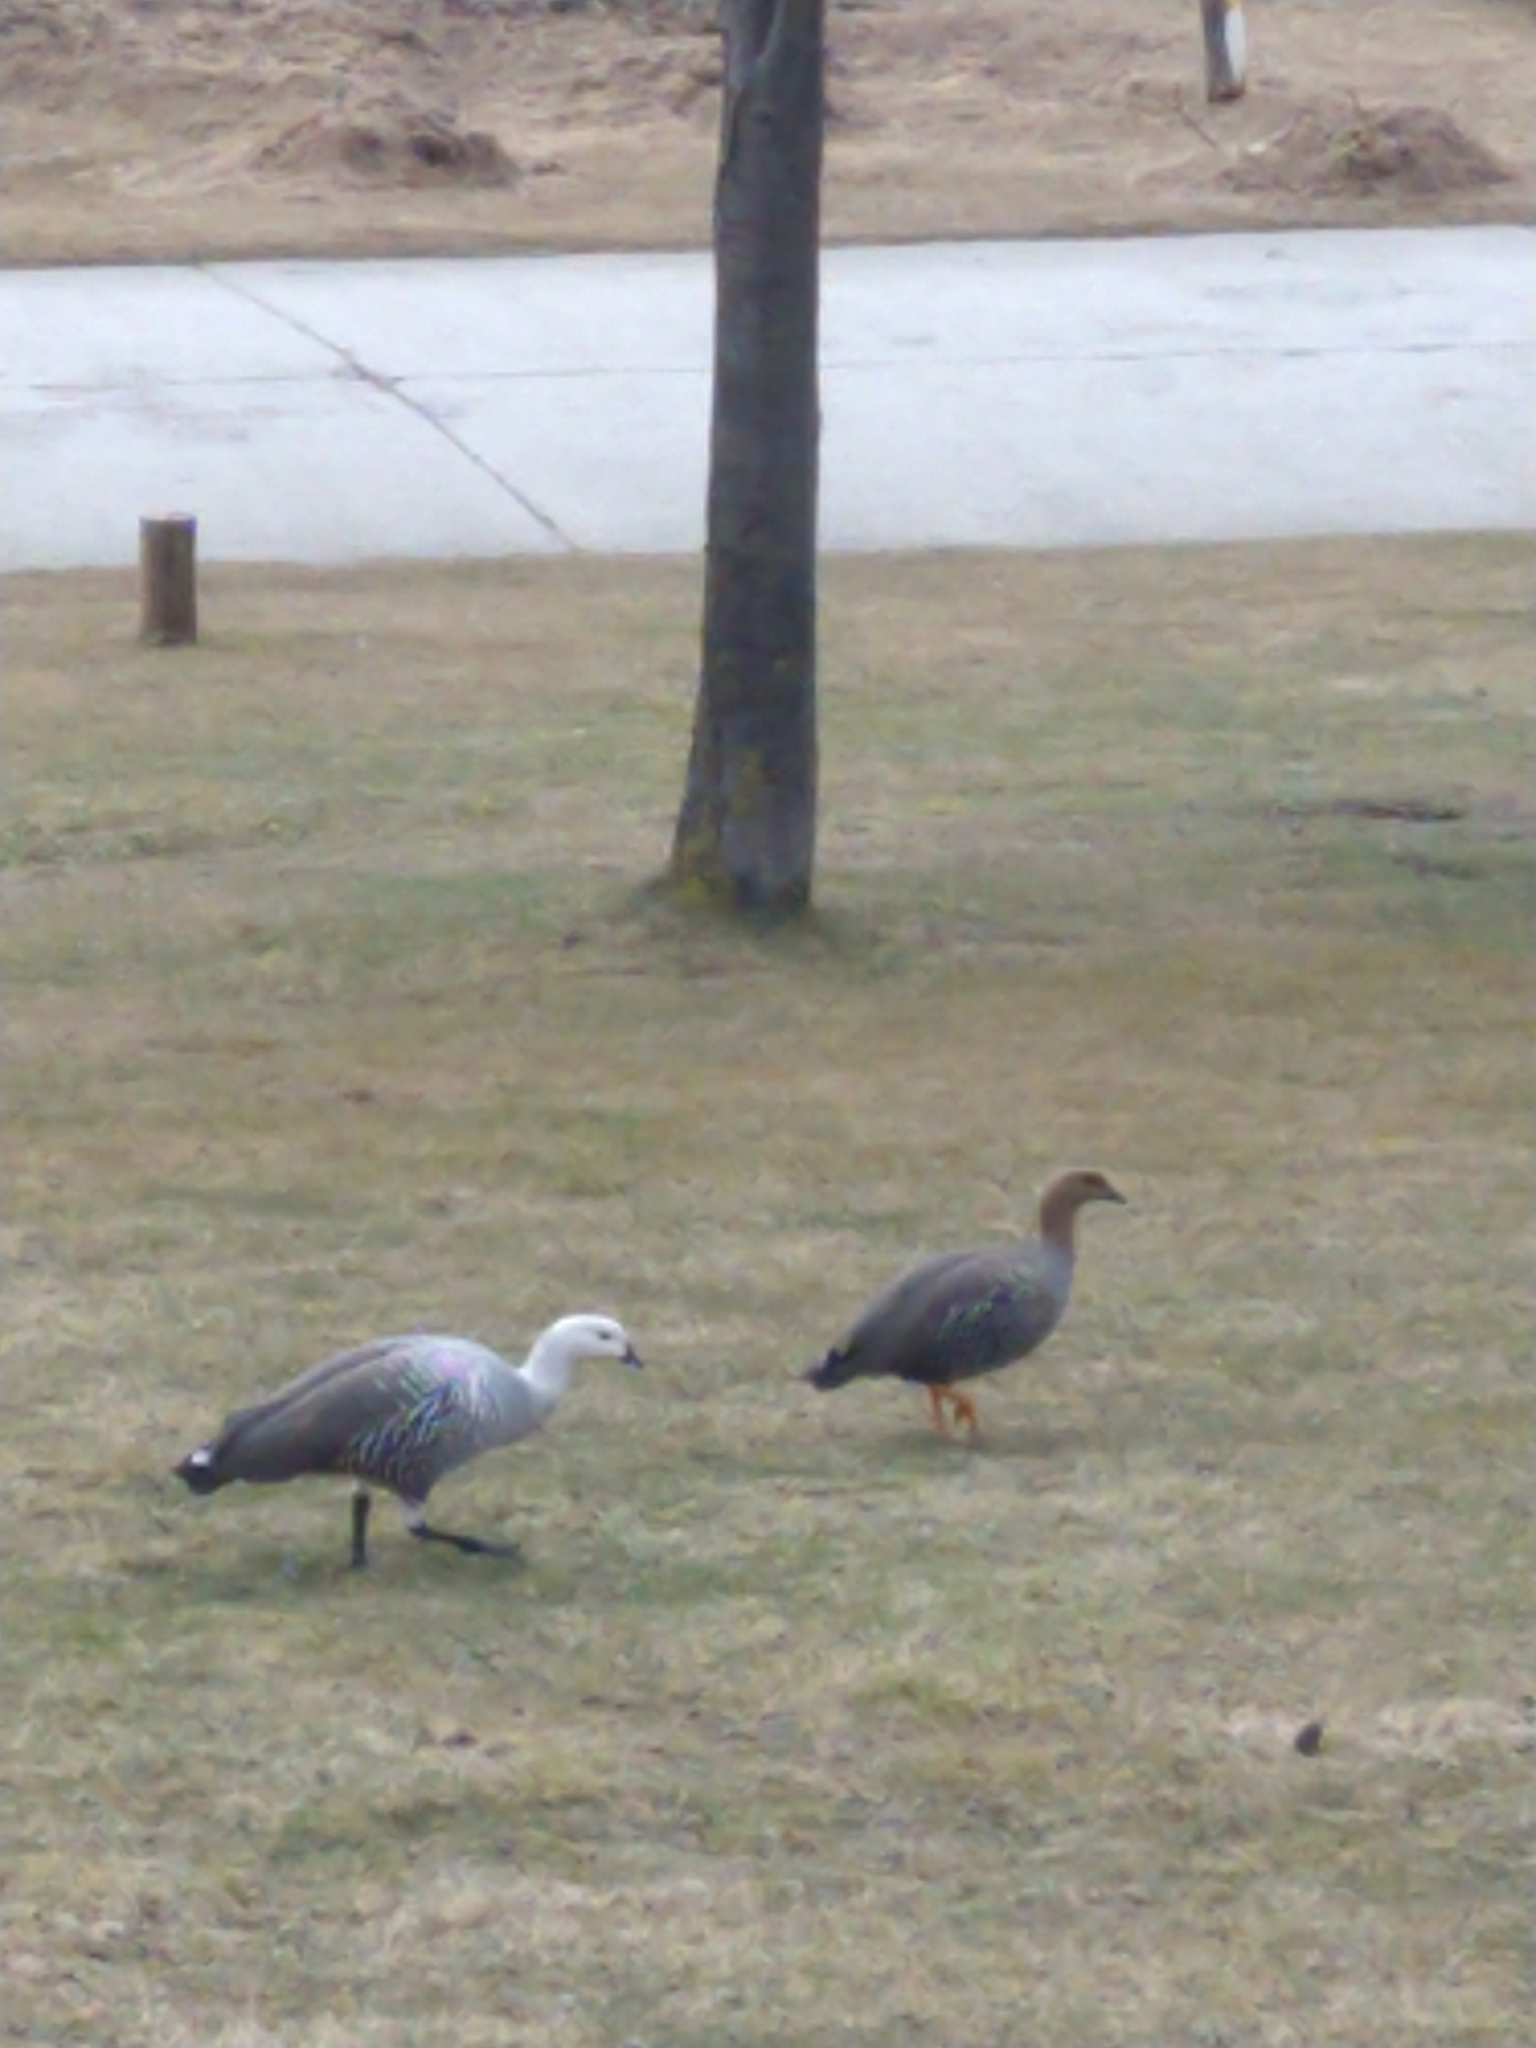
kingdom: Animalia
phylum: Chordata
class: Aves
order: Anseriformes
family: Anatidae
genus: Chloephaga
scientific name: Chloephaga picta
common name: Upland goose
